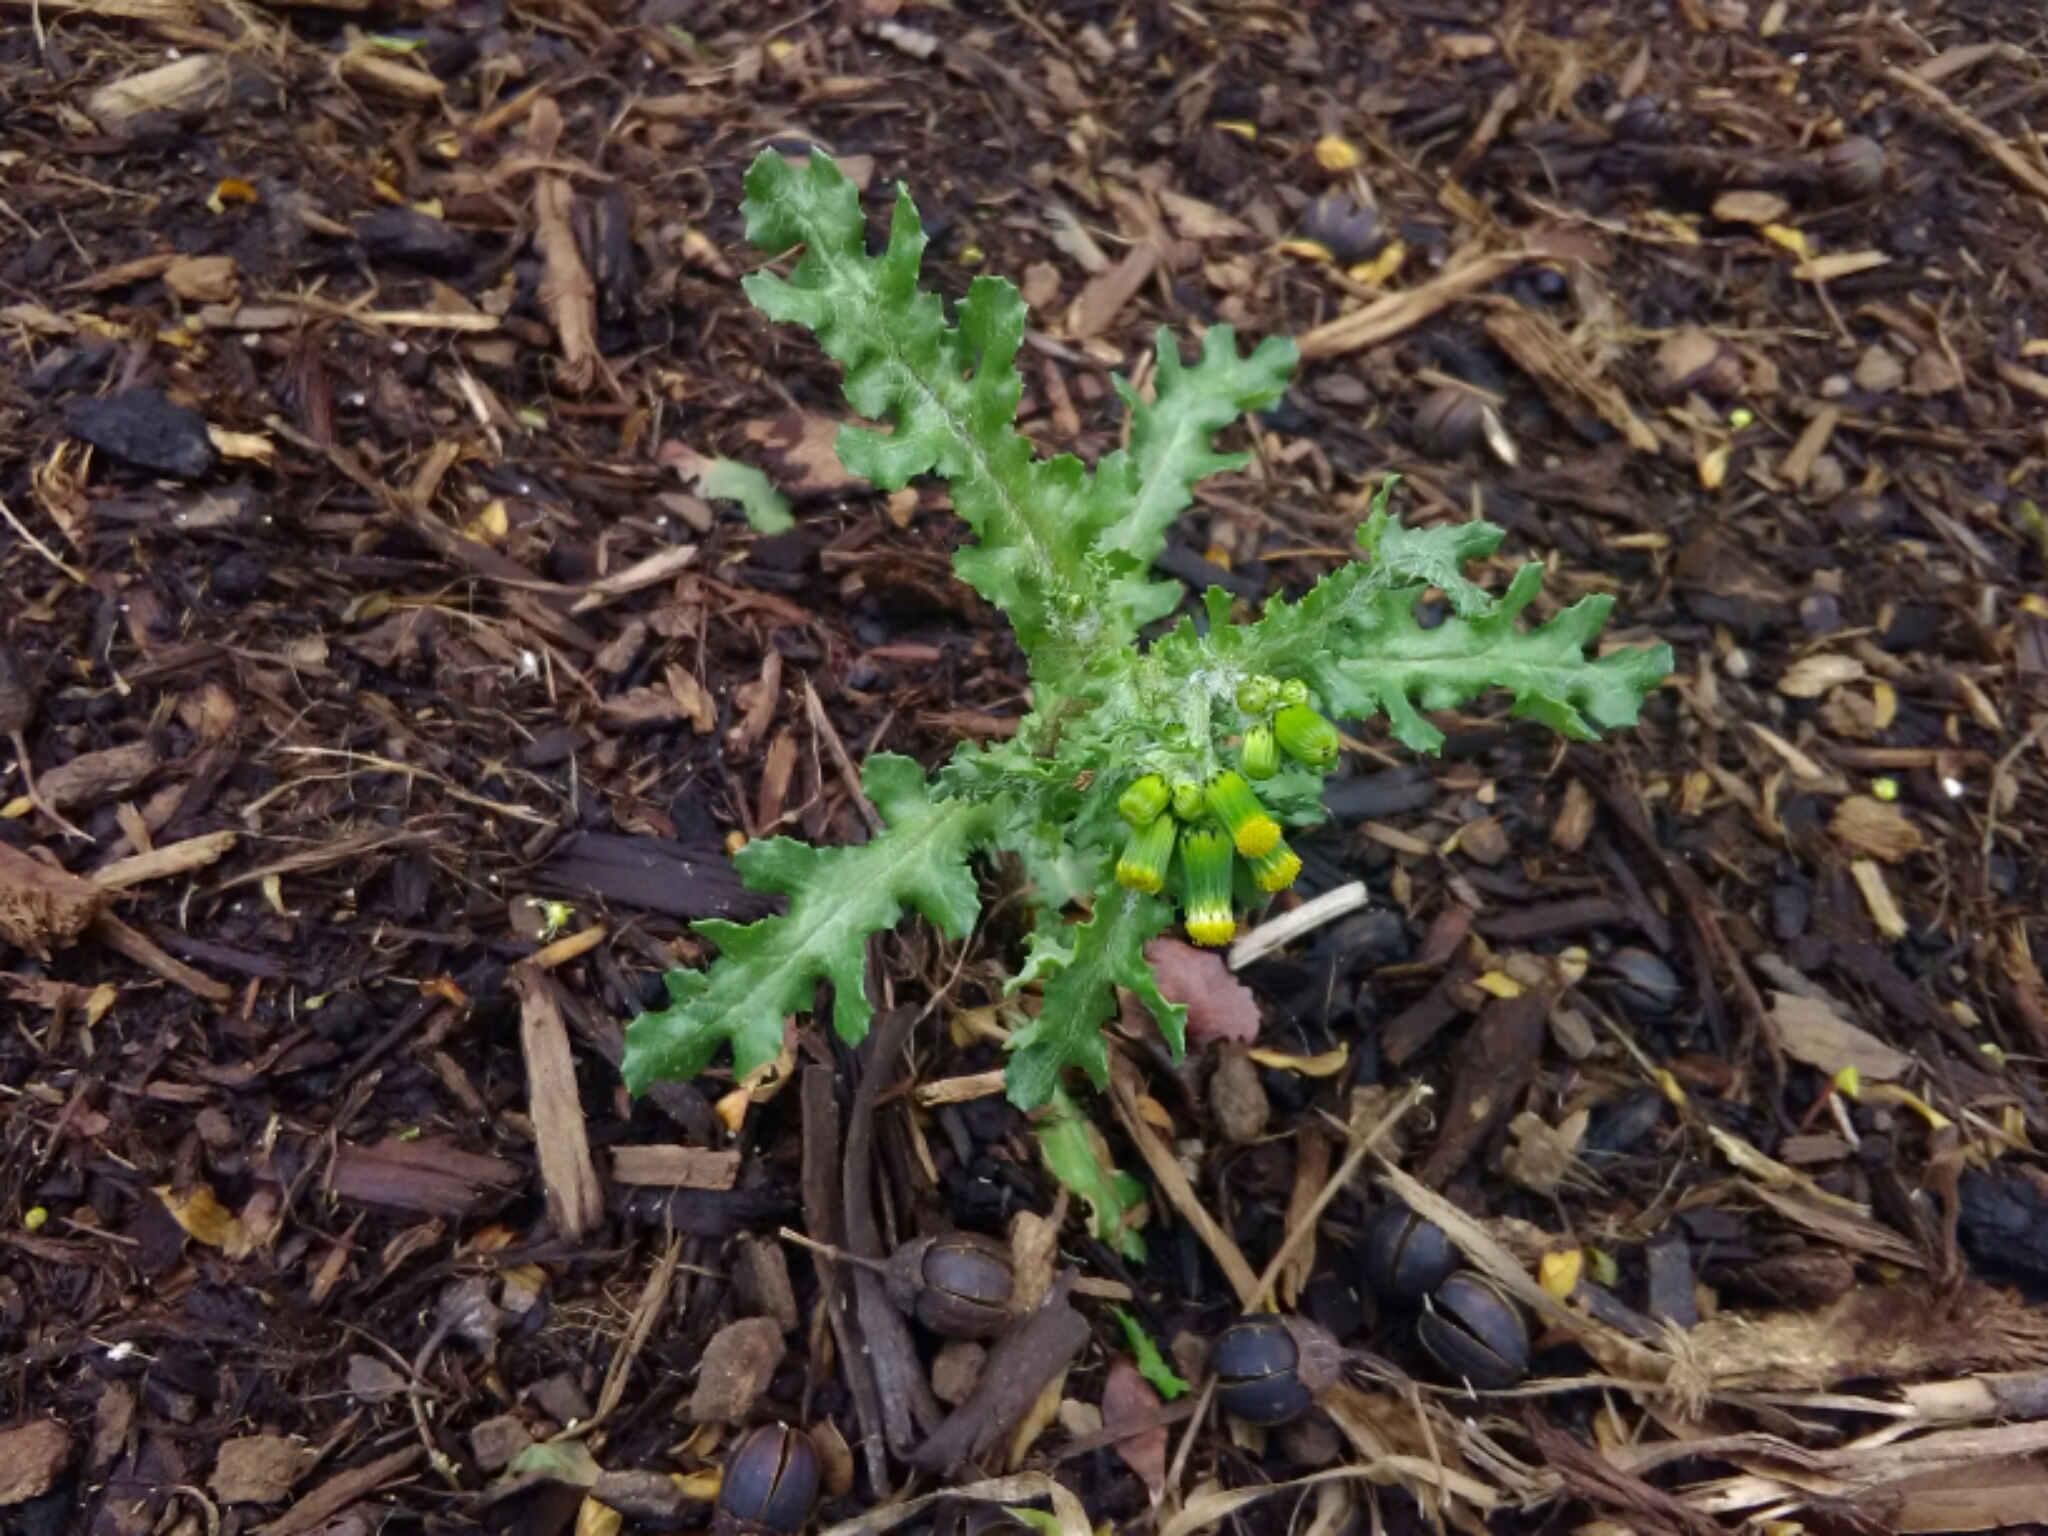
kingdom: Plantae
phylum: Tracheophyta
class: Magnoliopsida
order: Asterales
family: Asteraceae
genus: Senecio
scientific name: Senecio vulgaris
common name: Old-man-in-the-spring
